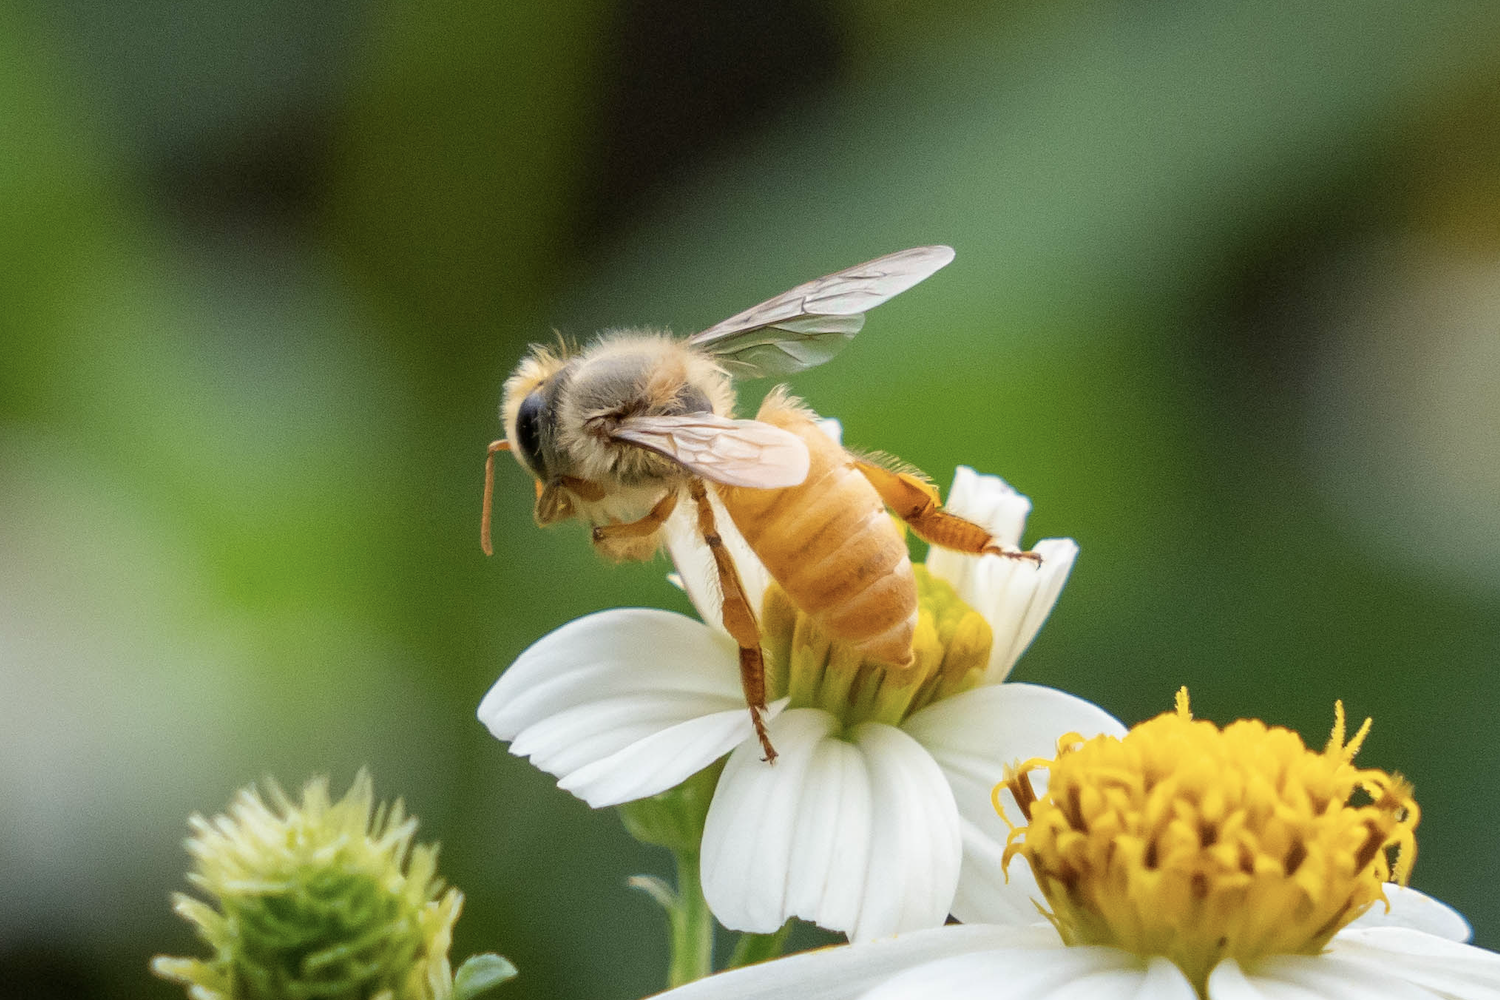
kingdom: Animalia
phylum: Arthropoda
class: Insecta
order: Hymenoptera
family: Apidae
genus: Apis
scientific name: Apis cerana
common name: Honey bee
